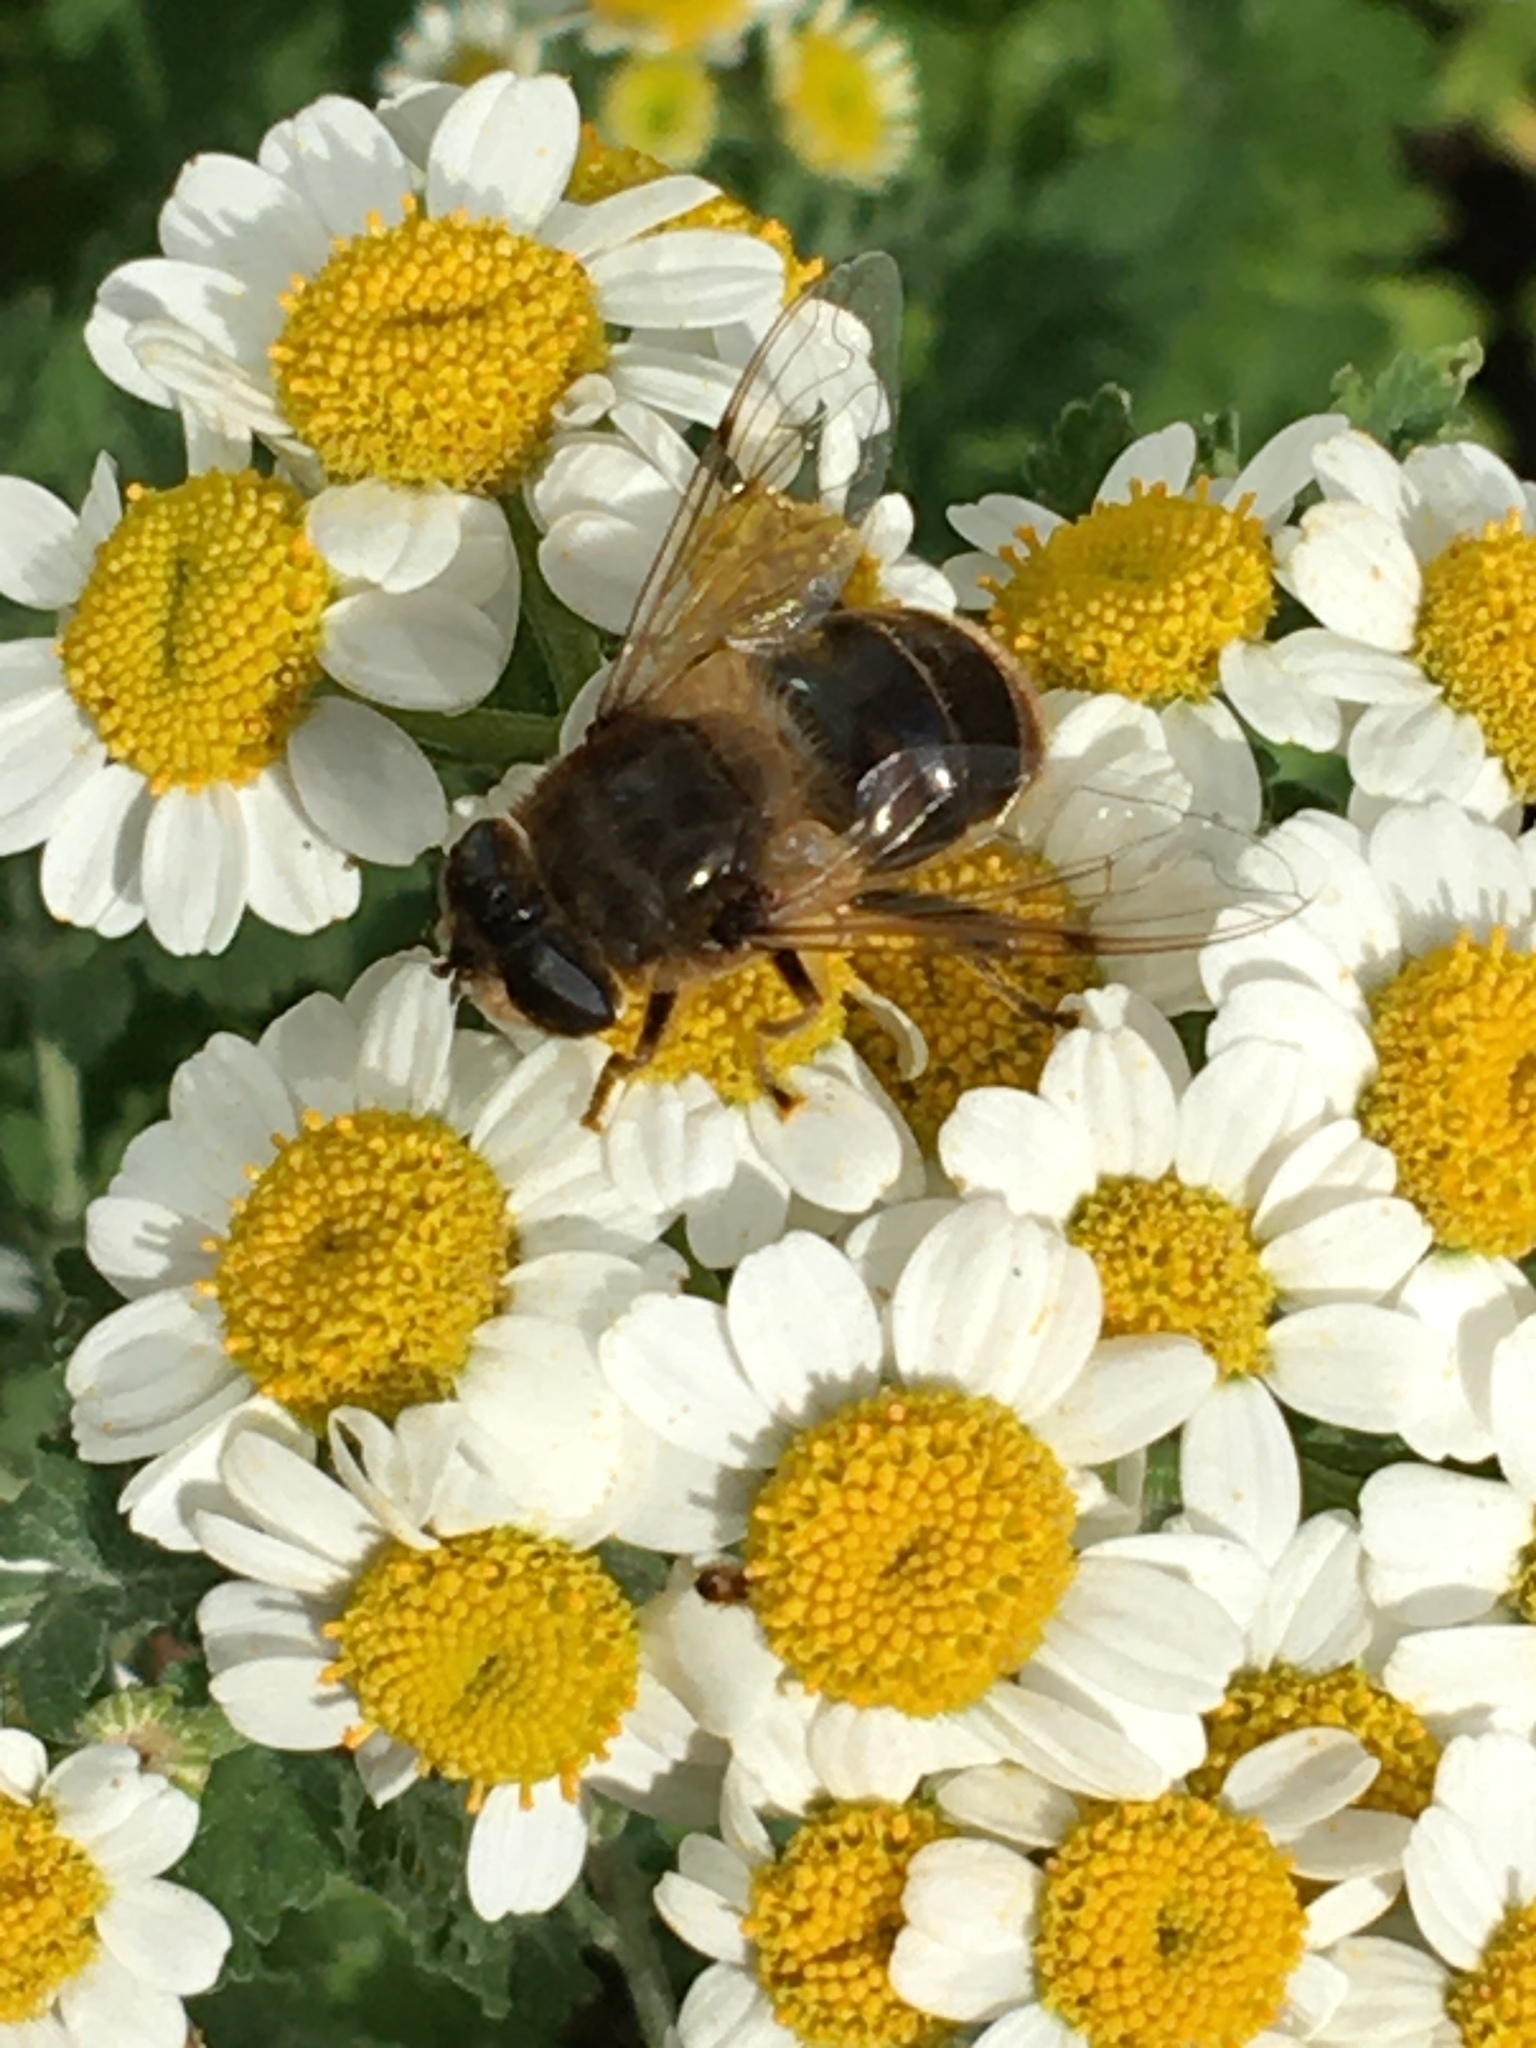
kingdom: Animalia
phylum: Arthropoda
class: Insecta
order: Diptera
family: Syrphidae
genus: Eristalis
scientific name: Eristalis tenax
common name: Drone fly
